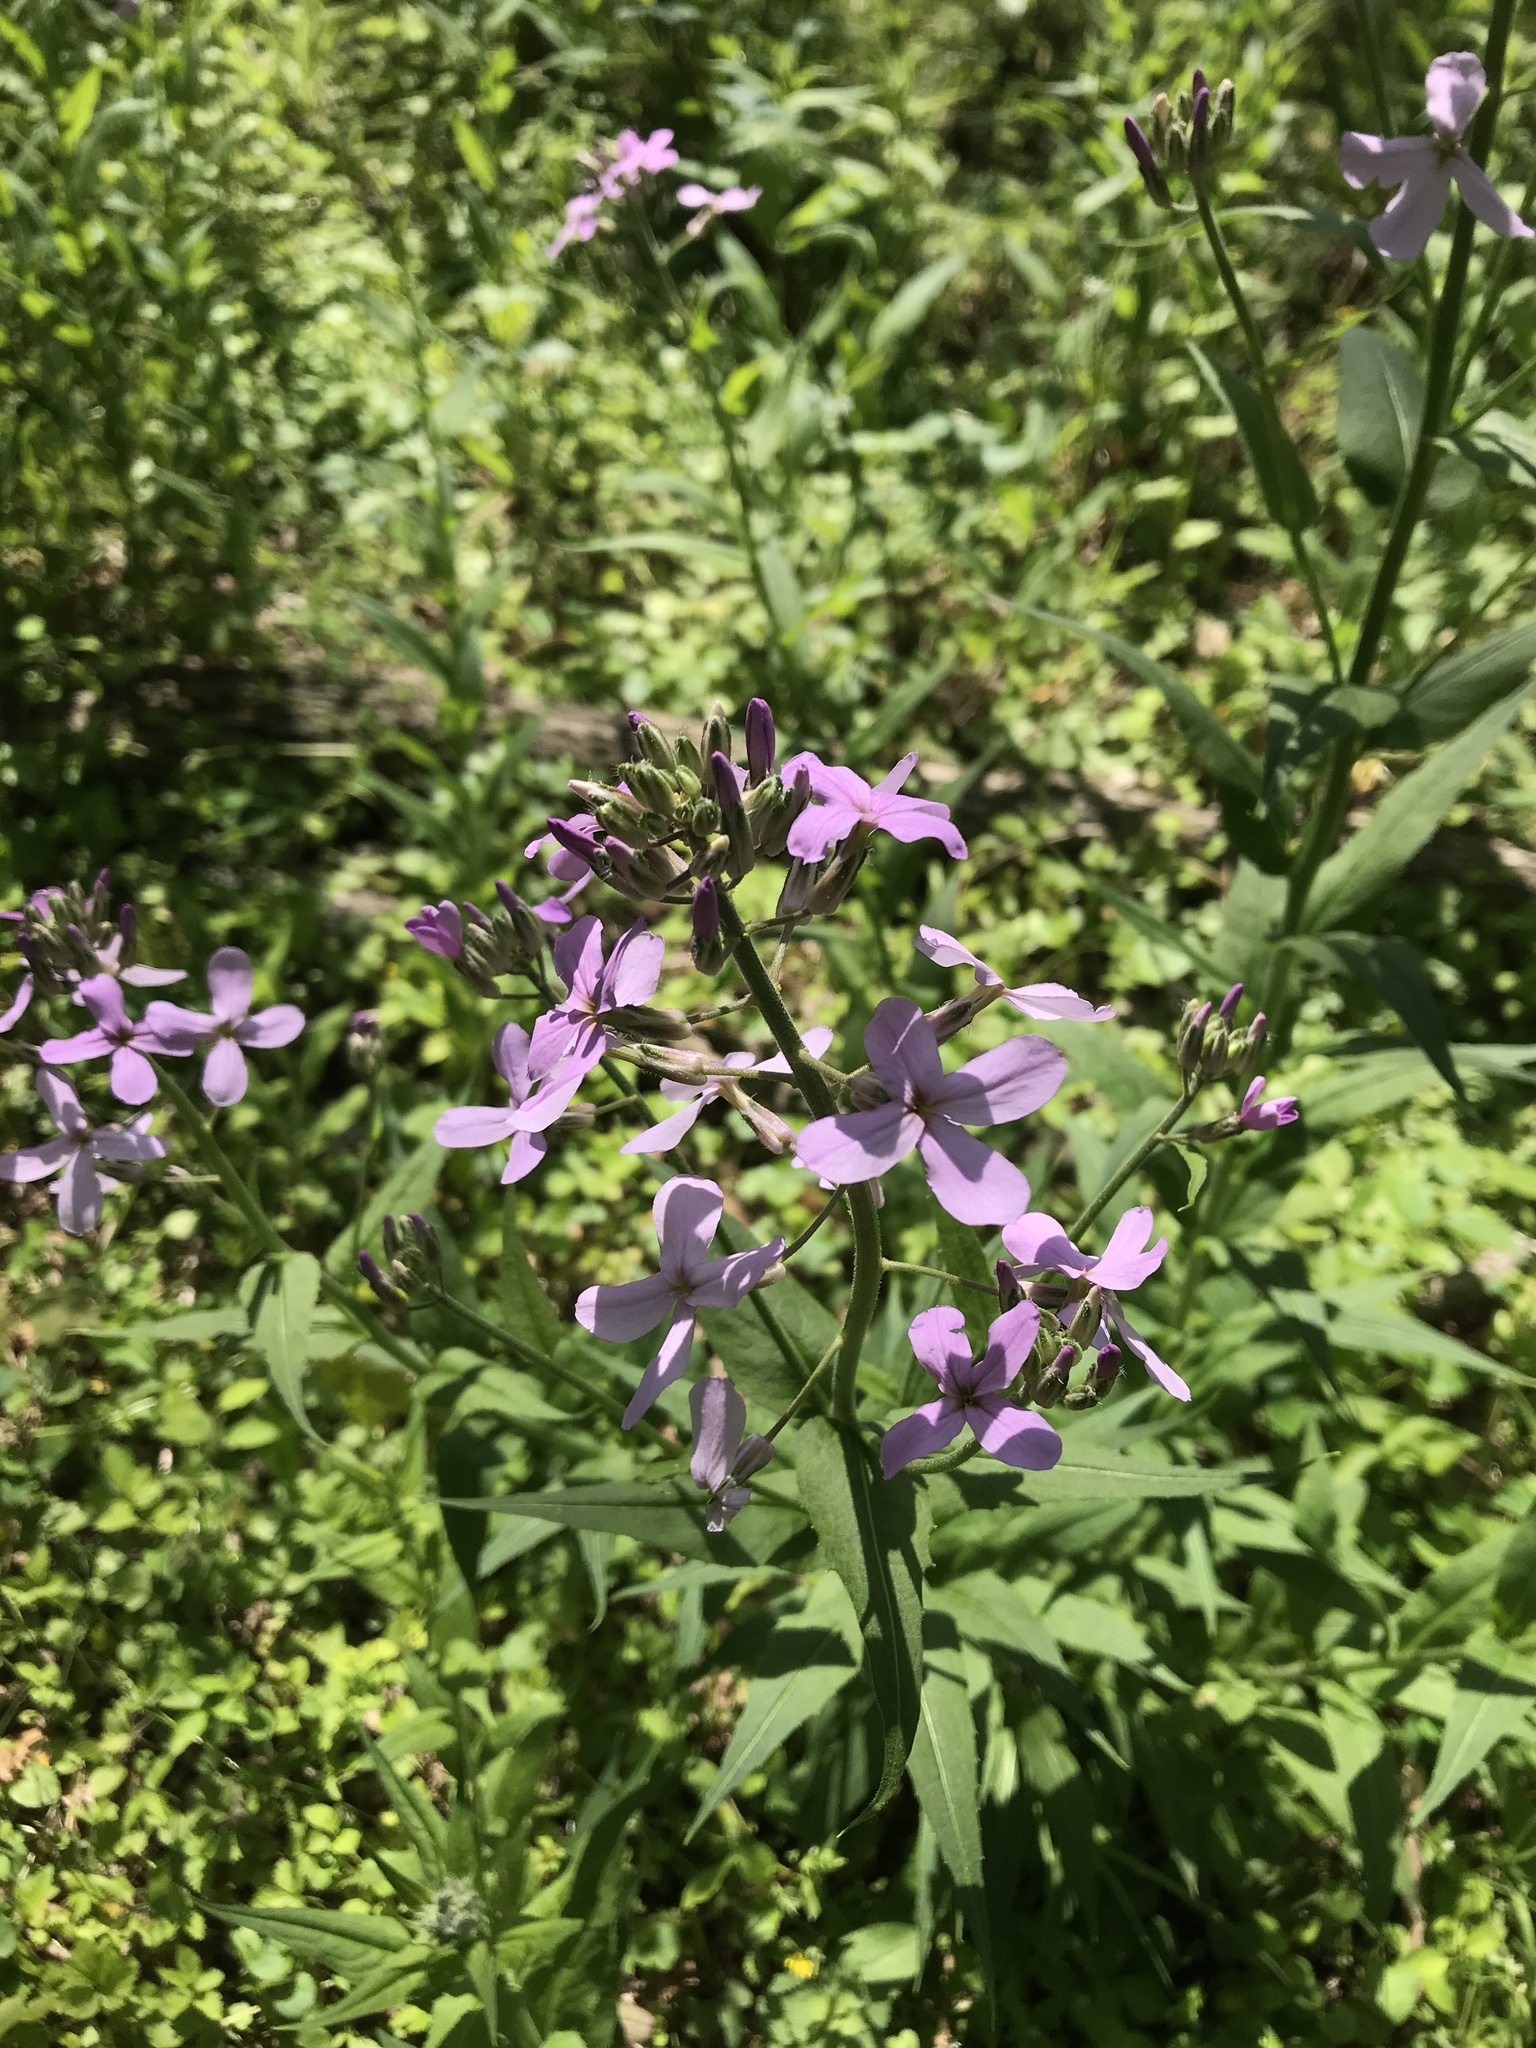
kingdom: Plantae
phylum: Tracheophyta
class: Magnoliopsida
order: Brassicales
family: Brassicaceae
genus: Hesperis
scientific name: Hesperis matronalis
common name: Dame's-violet
